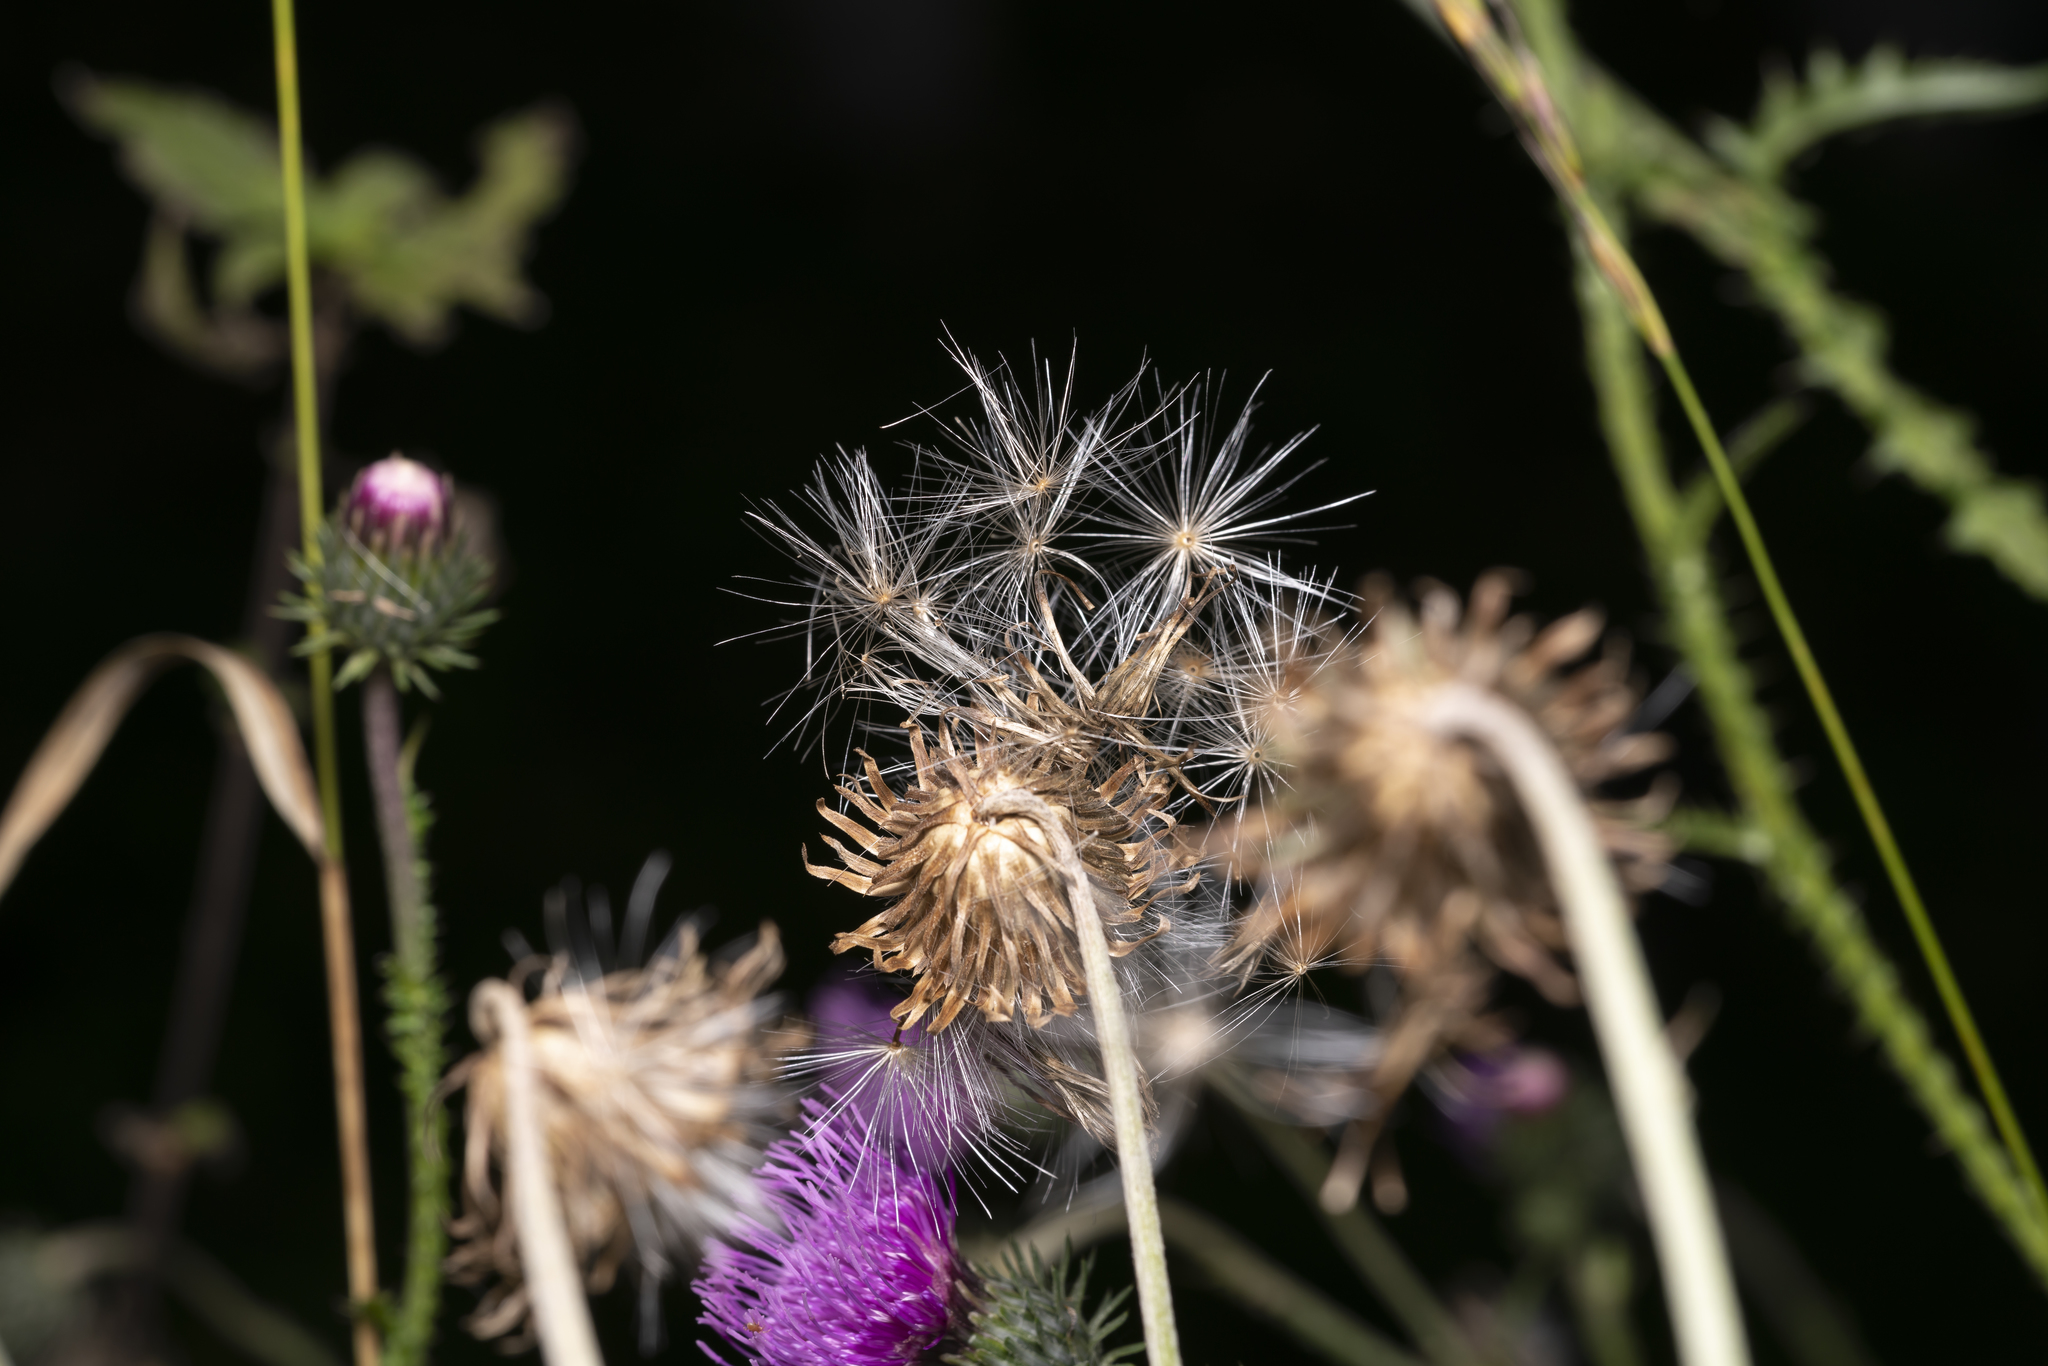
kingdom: Plantae
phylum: Tracheophyta
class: Magnoliopsida
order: Asterales
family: Asteraceae
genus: Carduus
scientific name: Carduus defloratus
